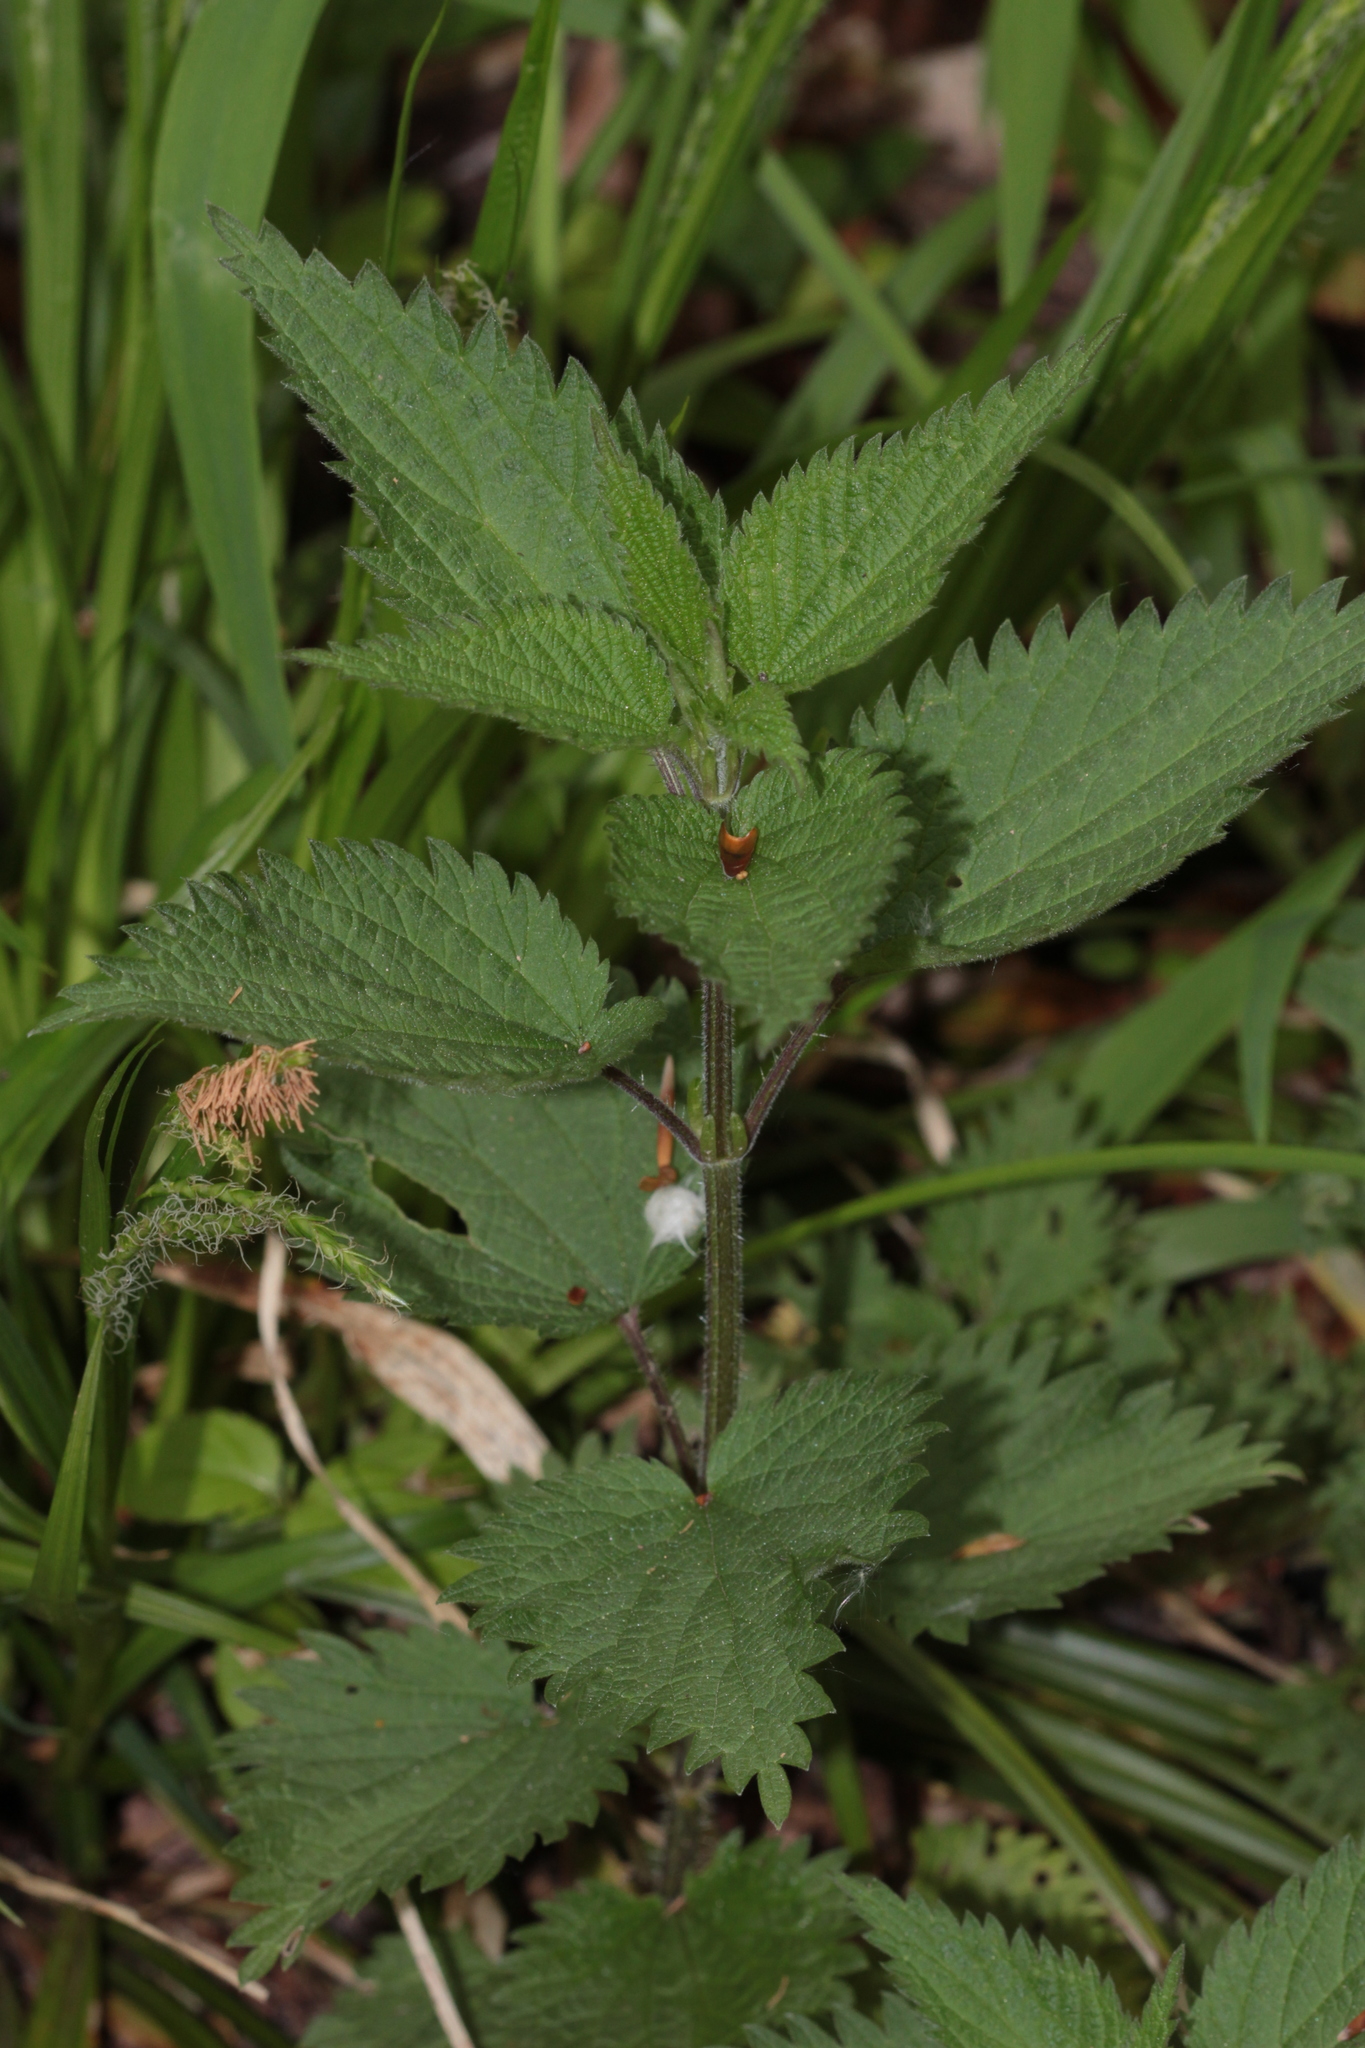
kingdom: Plantae
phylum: Tracheophyta
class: Magnoliopsida
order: Rosales
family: Urticaceae
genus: Urtica
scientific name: Urtica dioica
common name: Common nettle
